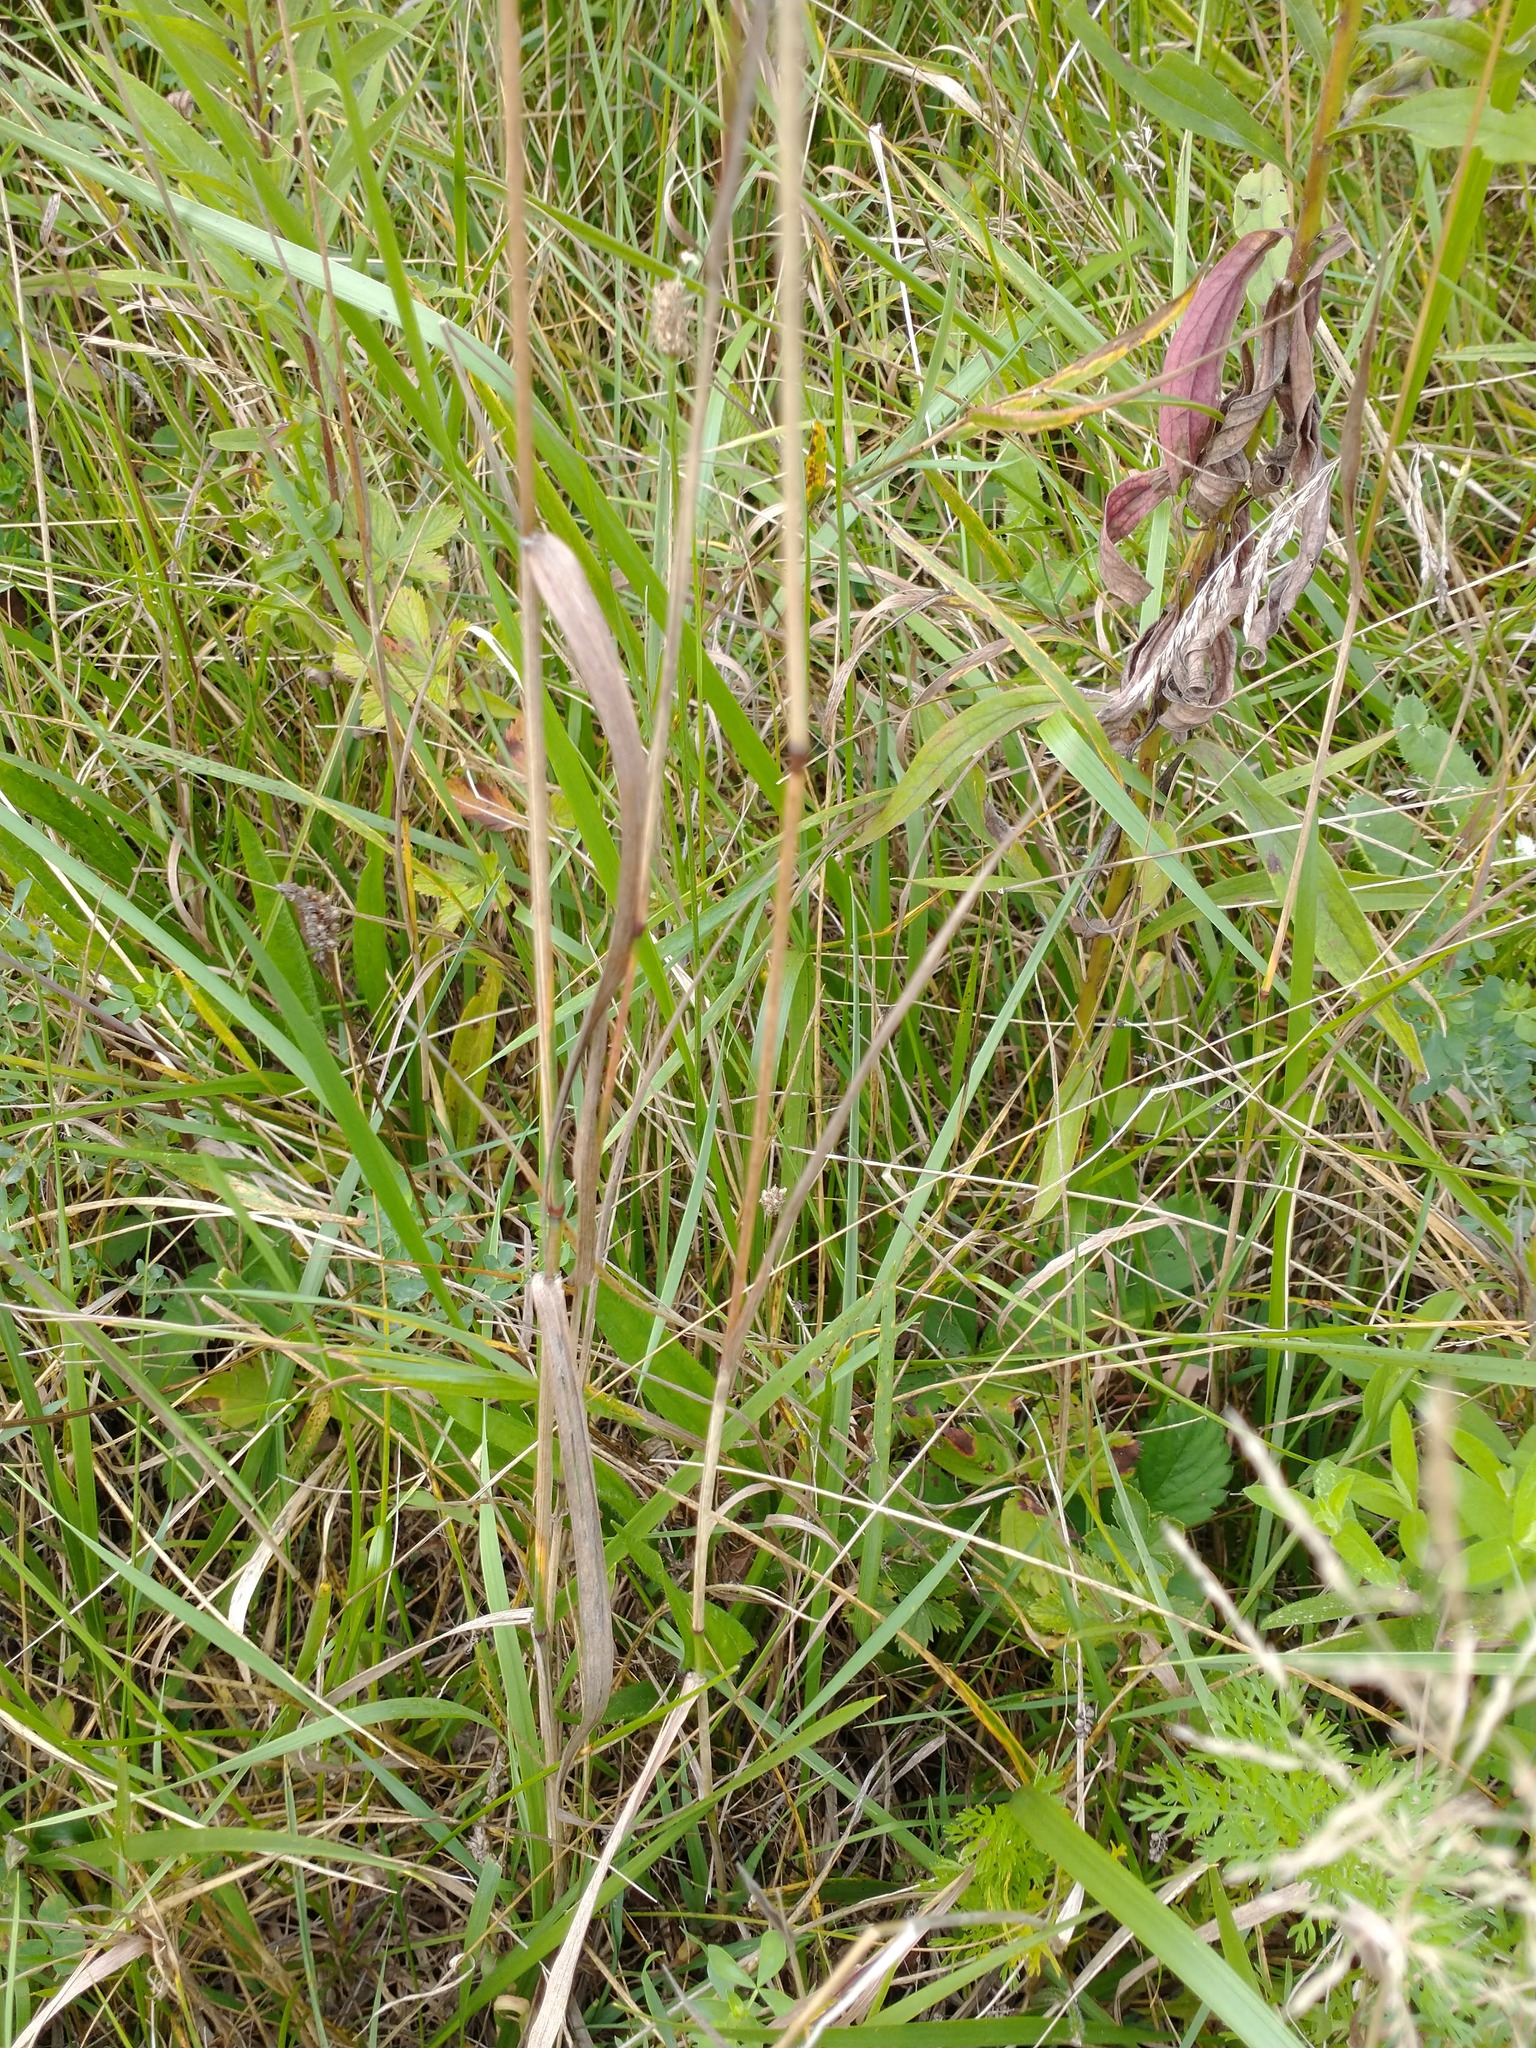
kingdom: Plantae
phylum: Tracheophyta
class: Liliopsida
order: Poales
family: Poaceae
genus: Phleum
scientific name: Phleum pratense
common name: Timothy grass
